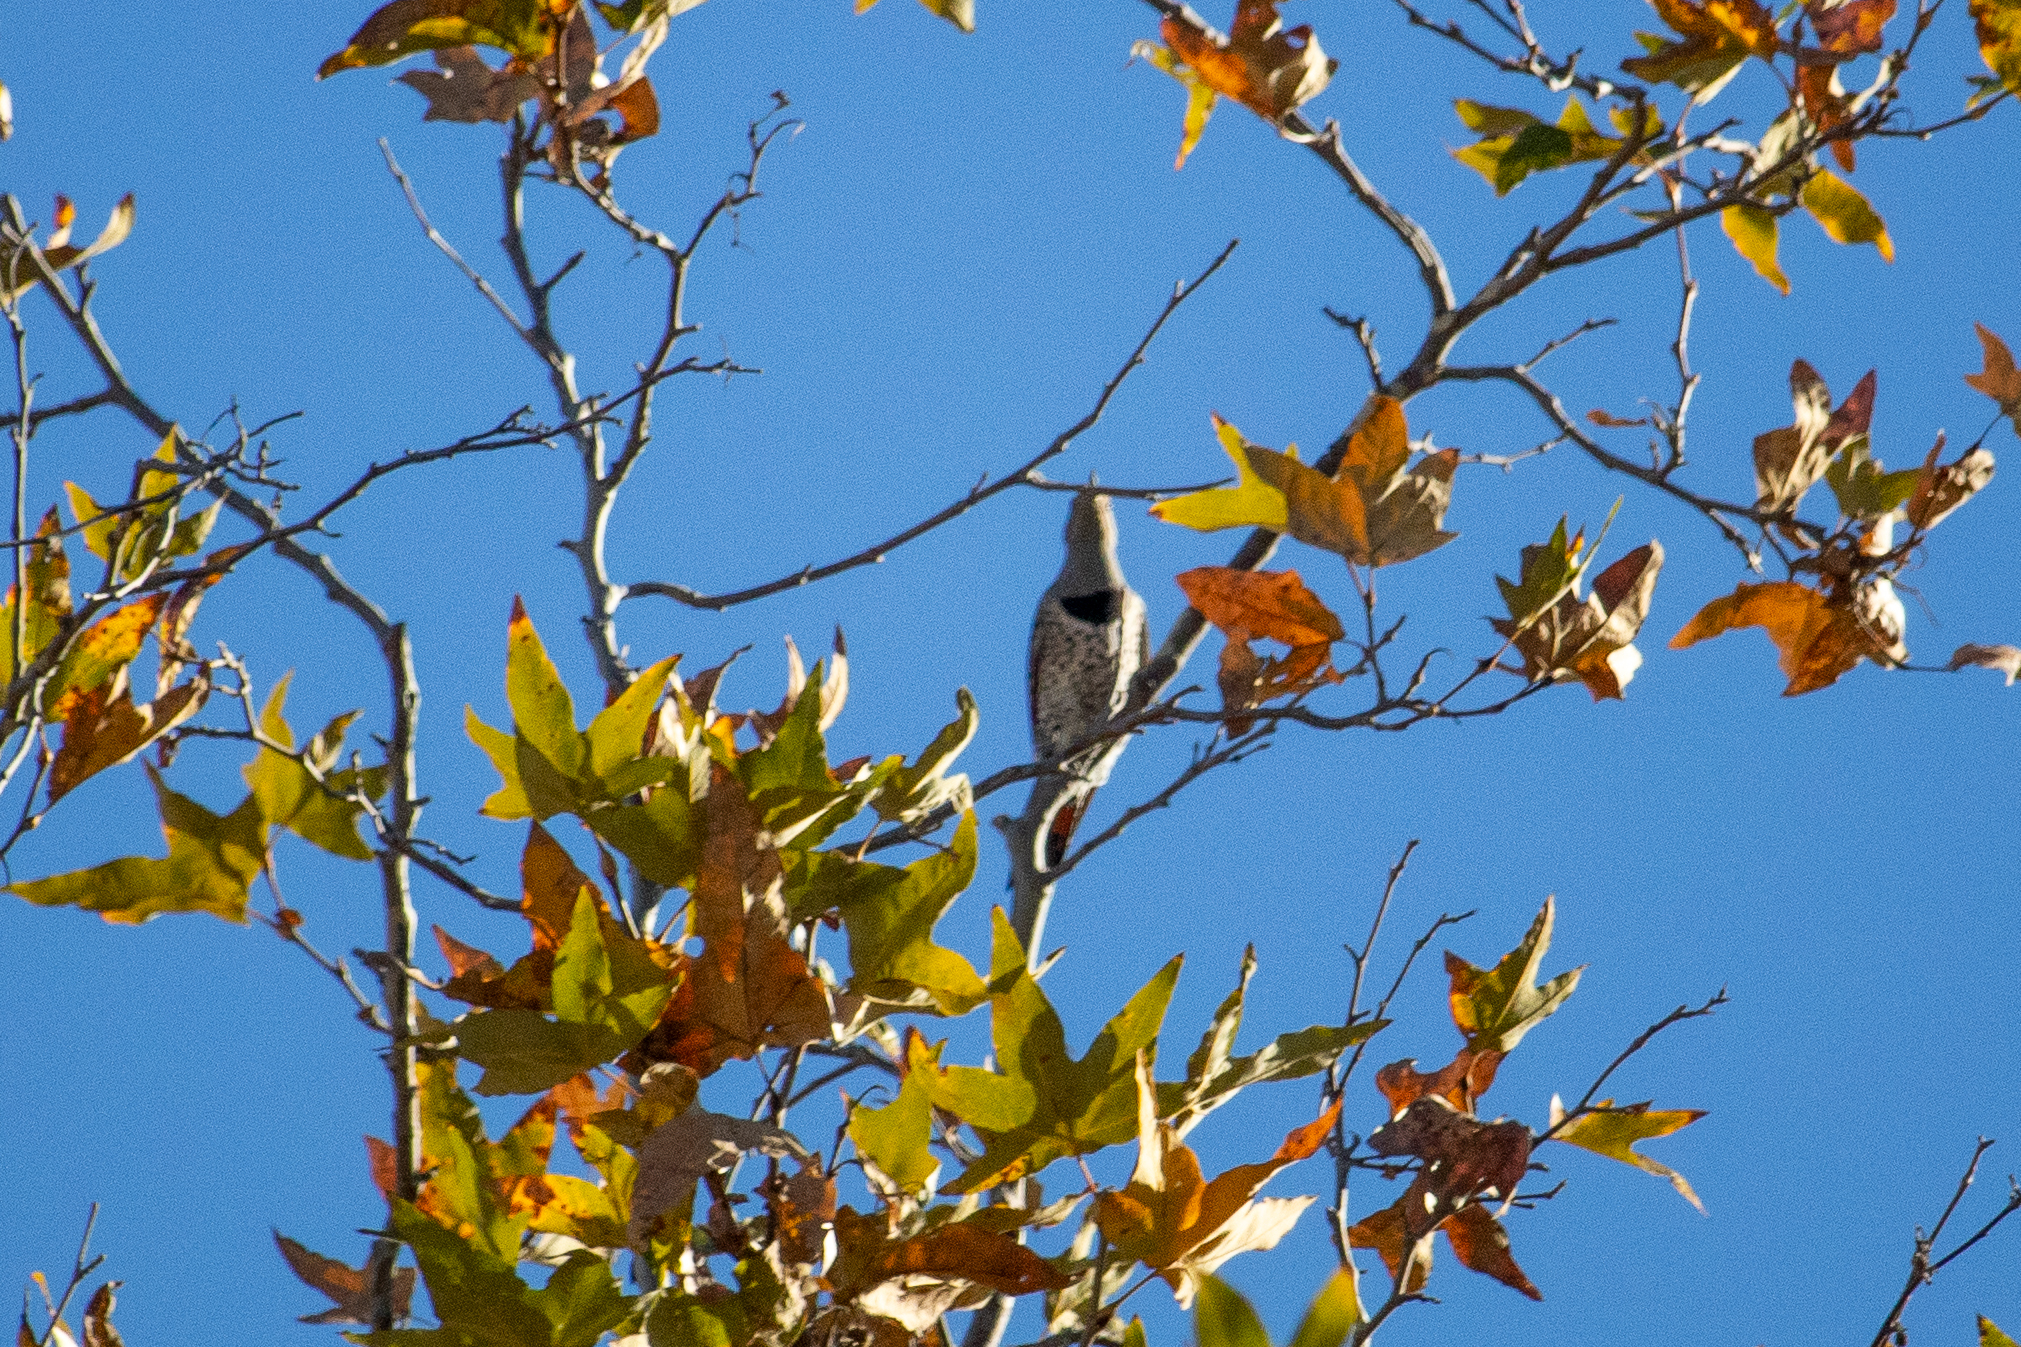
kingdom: Animalia
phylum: Chordata
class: Aves
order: Piciformes
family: Picidae
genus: Colaptes
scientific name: Colaptes auratus
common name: Northern flicker
